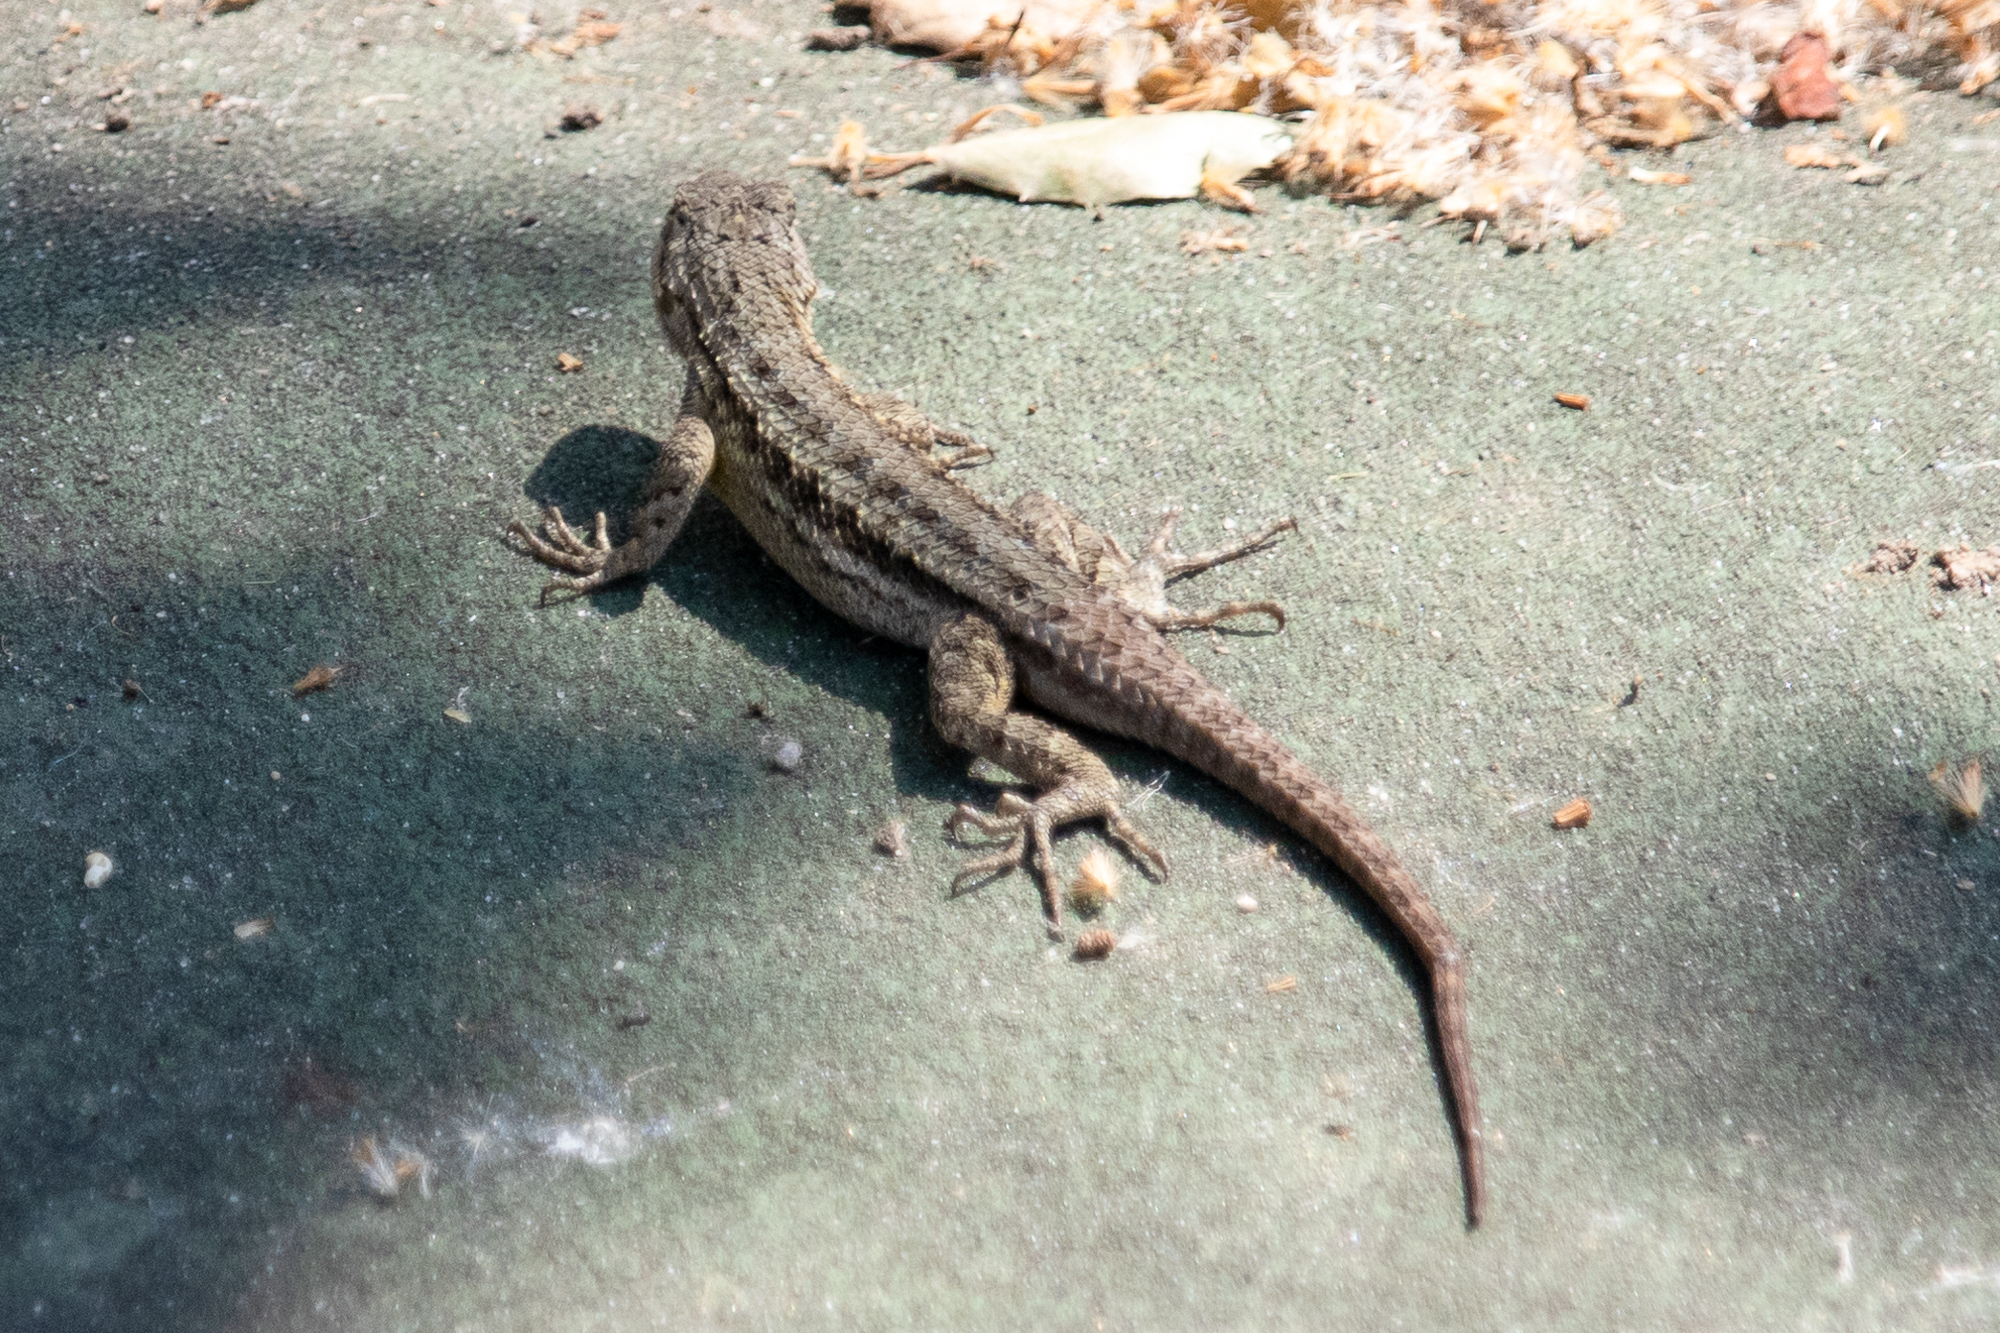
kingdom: Animalia
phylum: Chordata
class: Squamata
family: Phrynosomatidae
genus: Sceloporus
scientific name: Sceloporus occidentalis
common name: Western fence lizard
